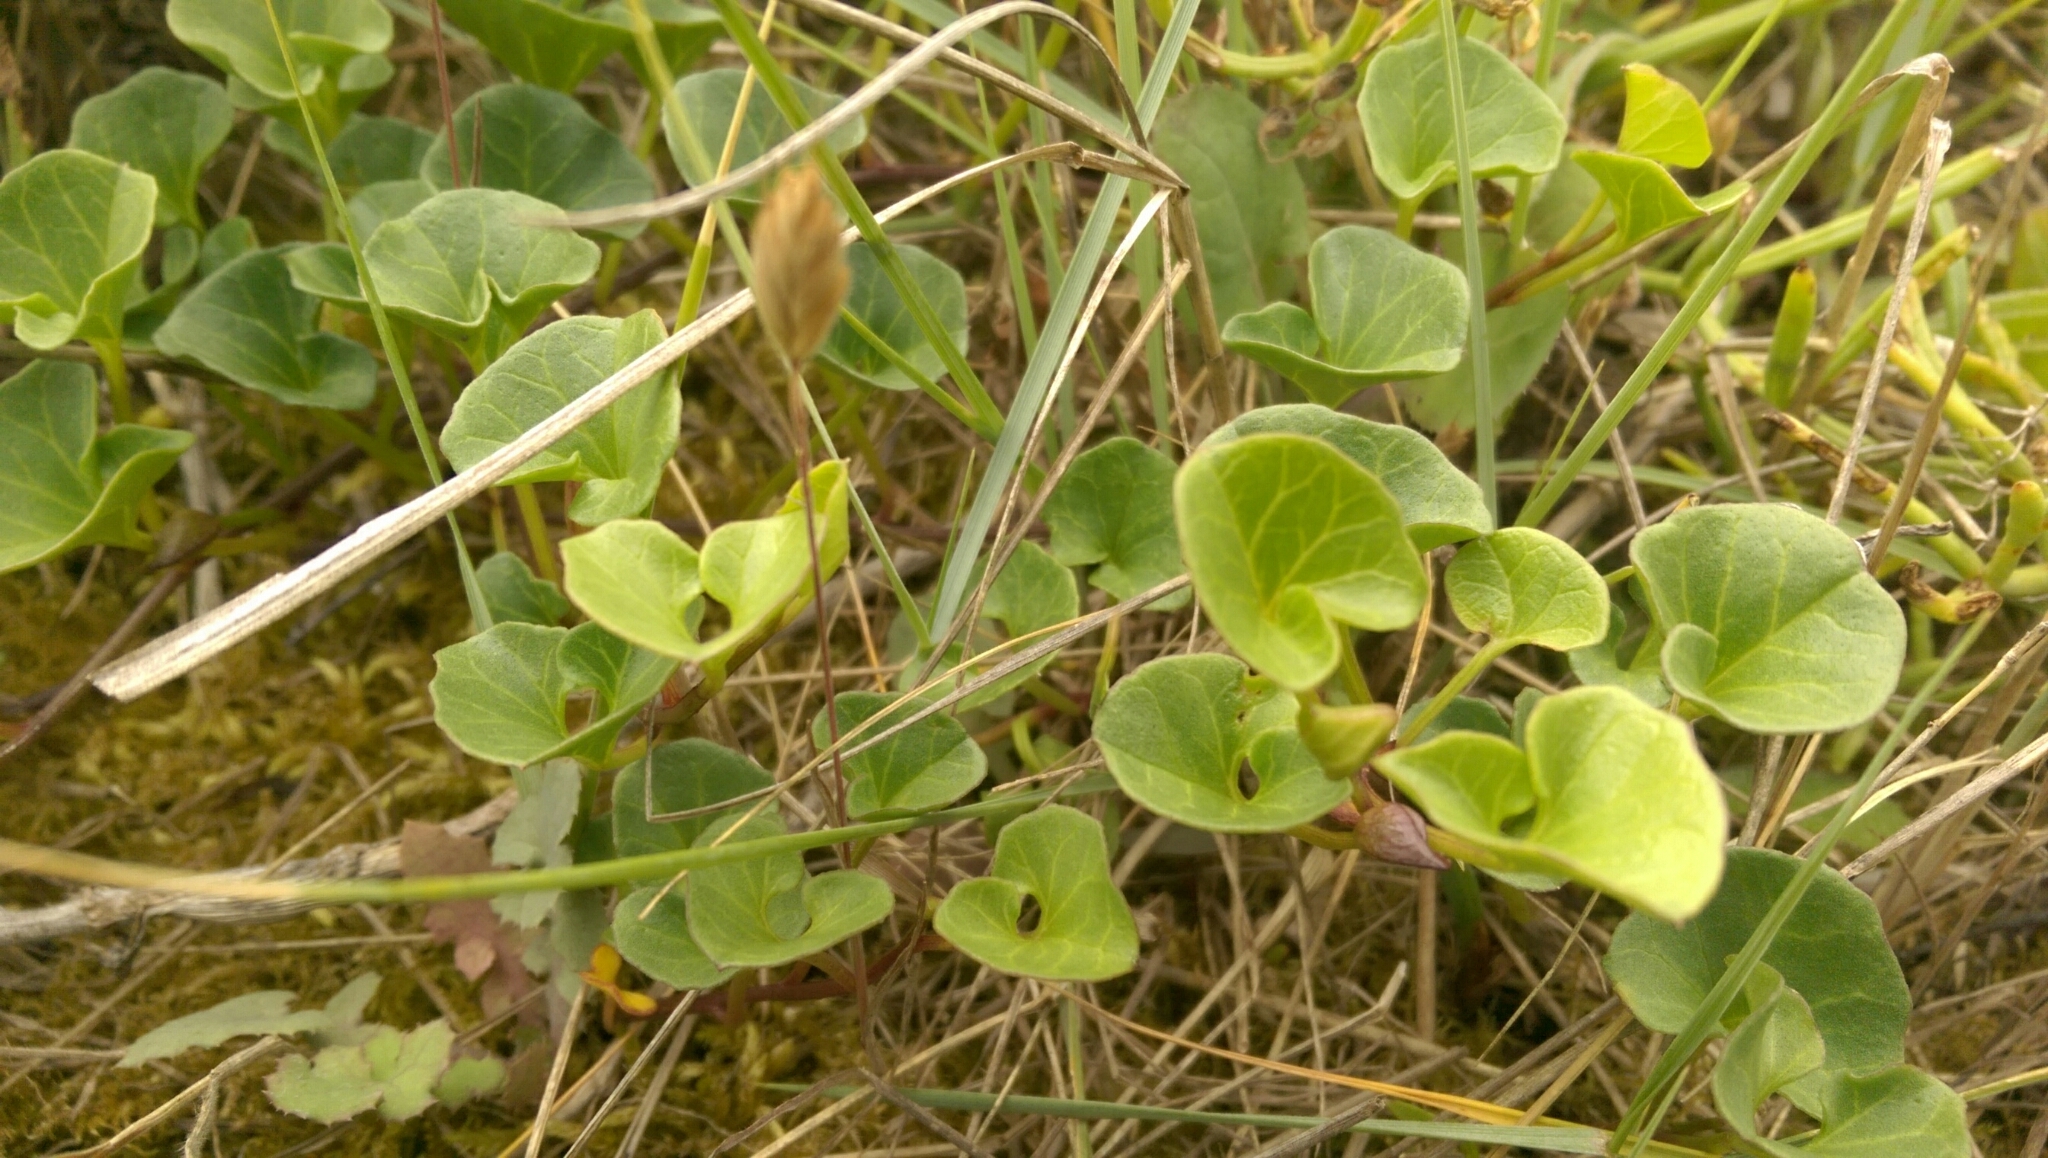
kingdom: Plantae
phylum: Tracheophyta
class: Magnoliopsida
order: Solanales
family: Convolvulaceae
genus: Calystegia
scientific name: Calystegia soldanella
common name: Sea bindweed
